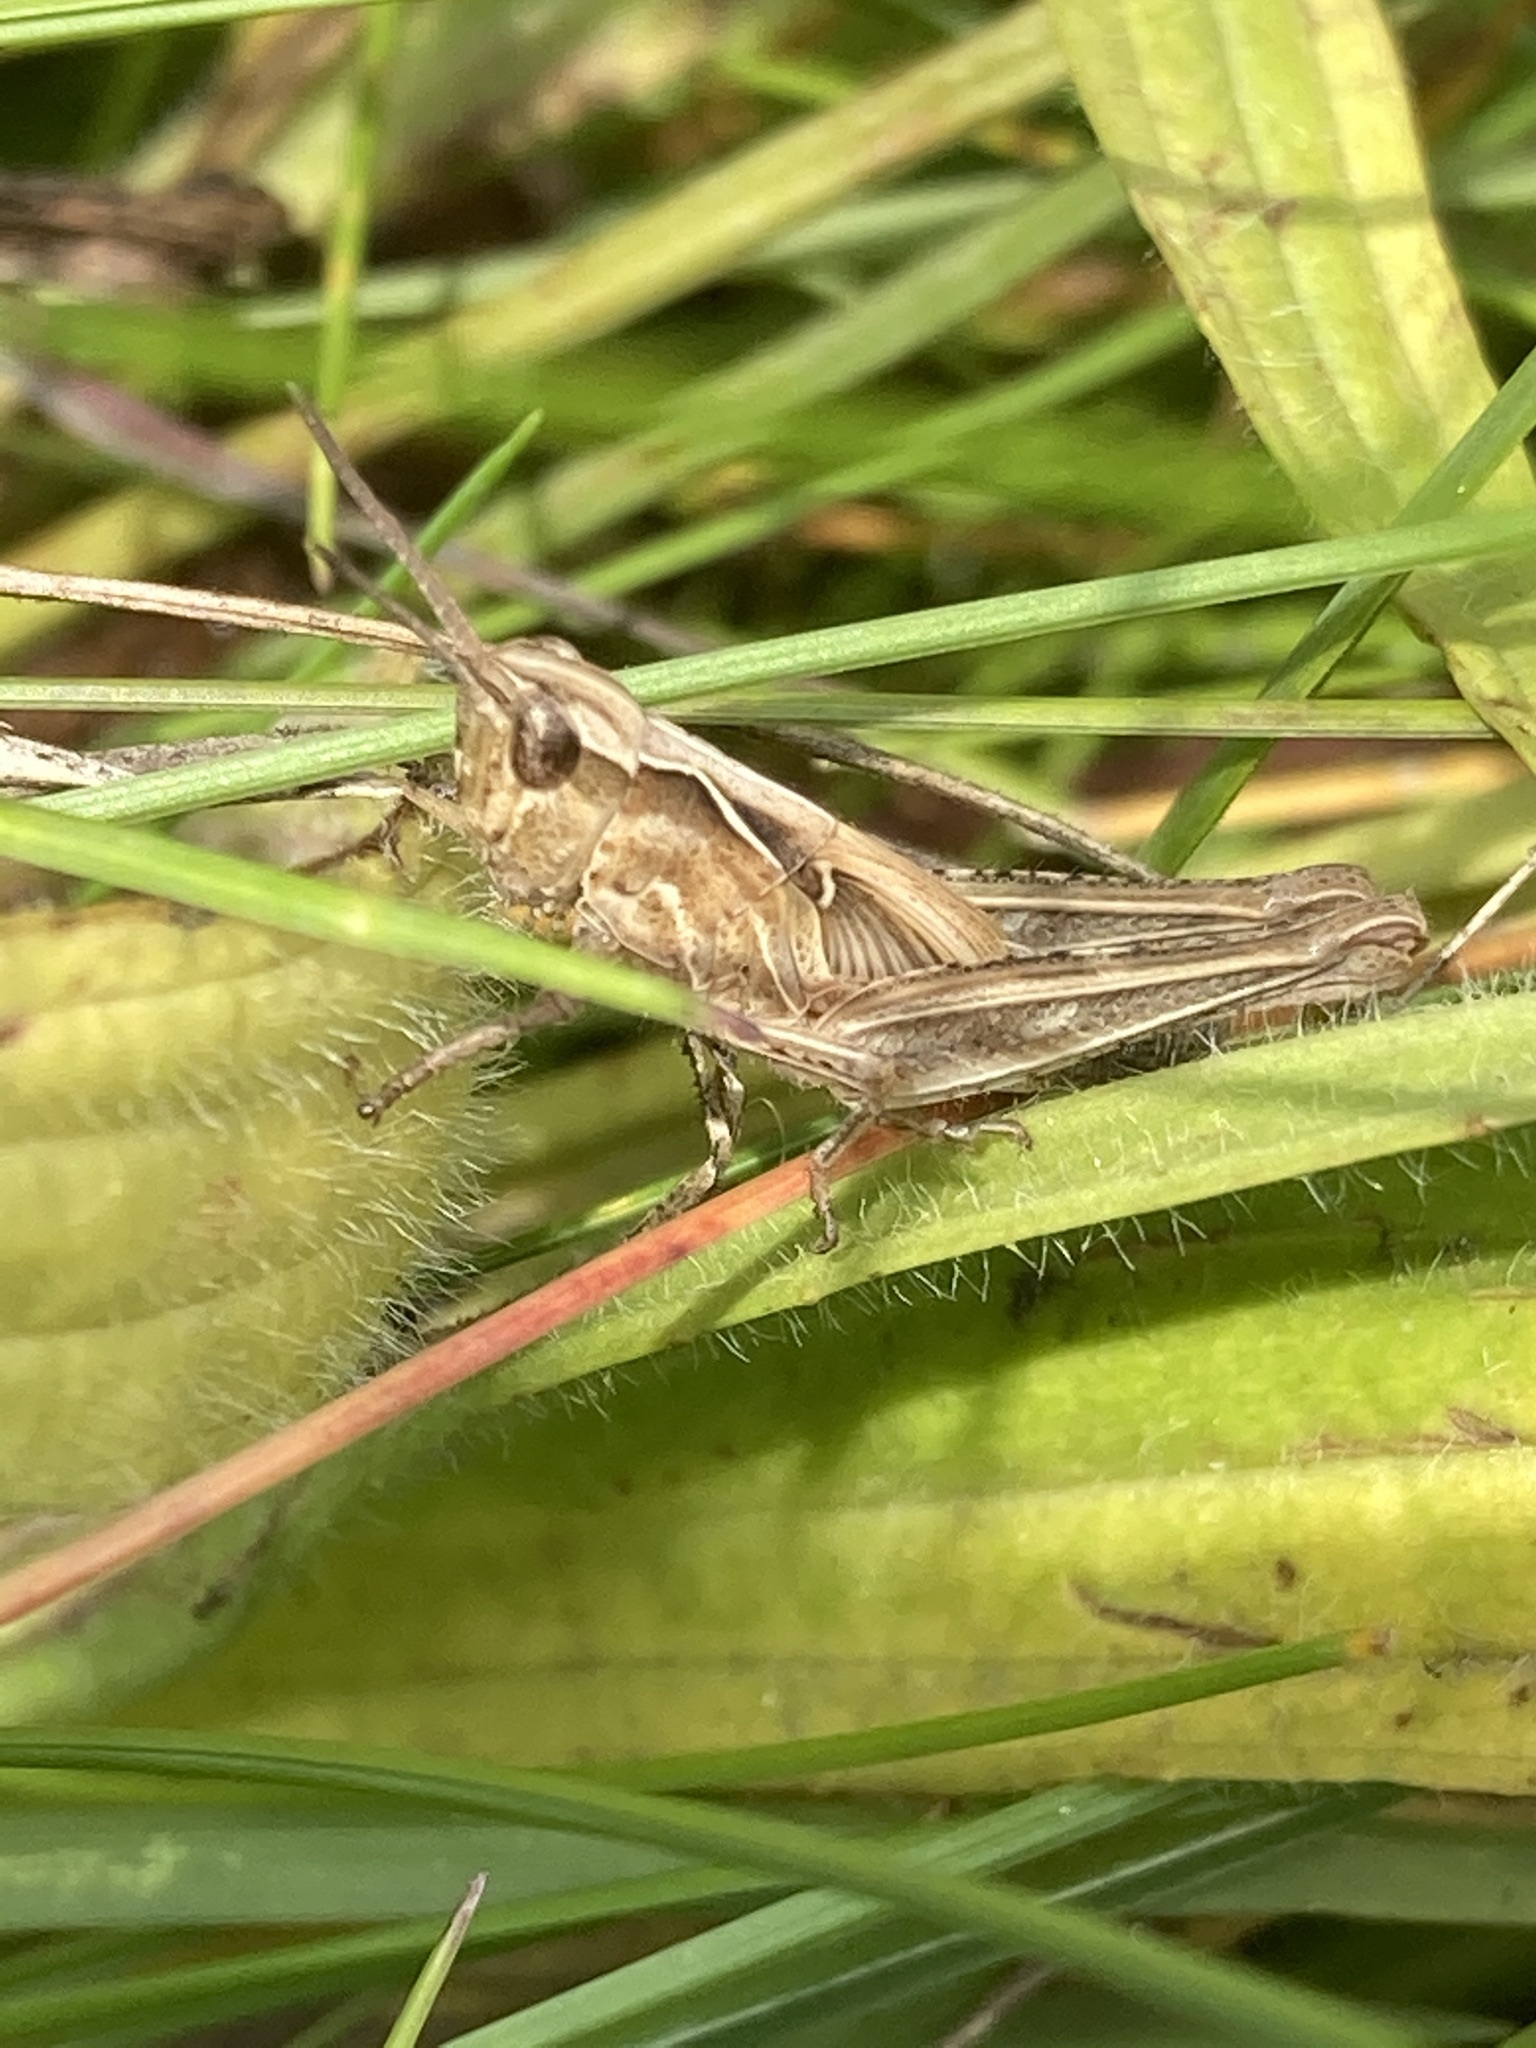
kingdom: Animalia
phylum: Arthropoda
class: Insecta
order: Orthoptera
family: Acrididae
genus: Chorthippus
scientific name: Chorthippus brunneus
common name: Field grasshopper
